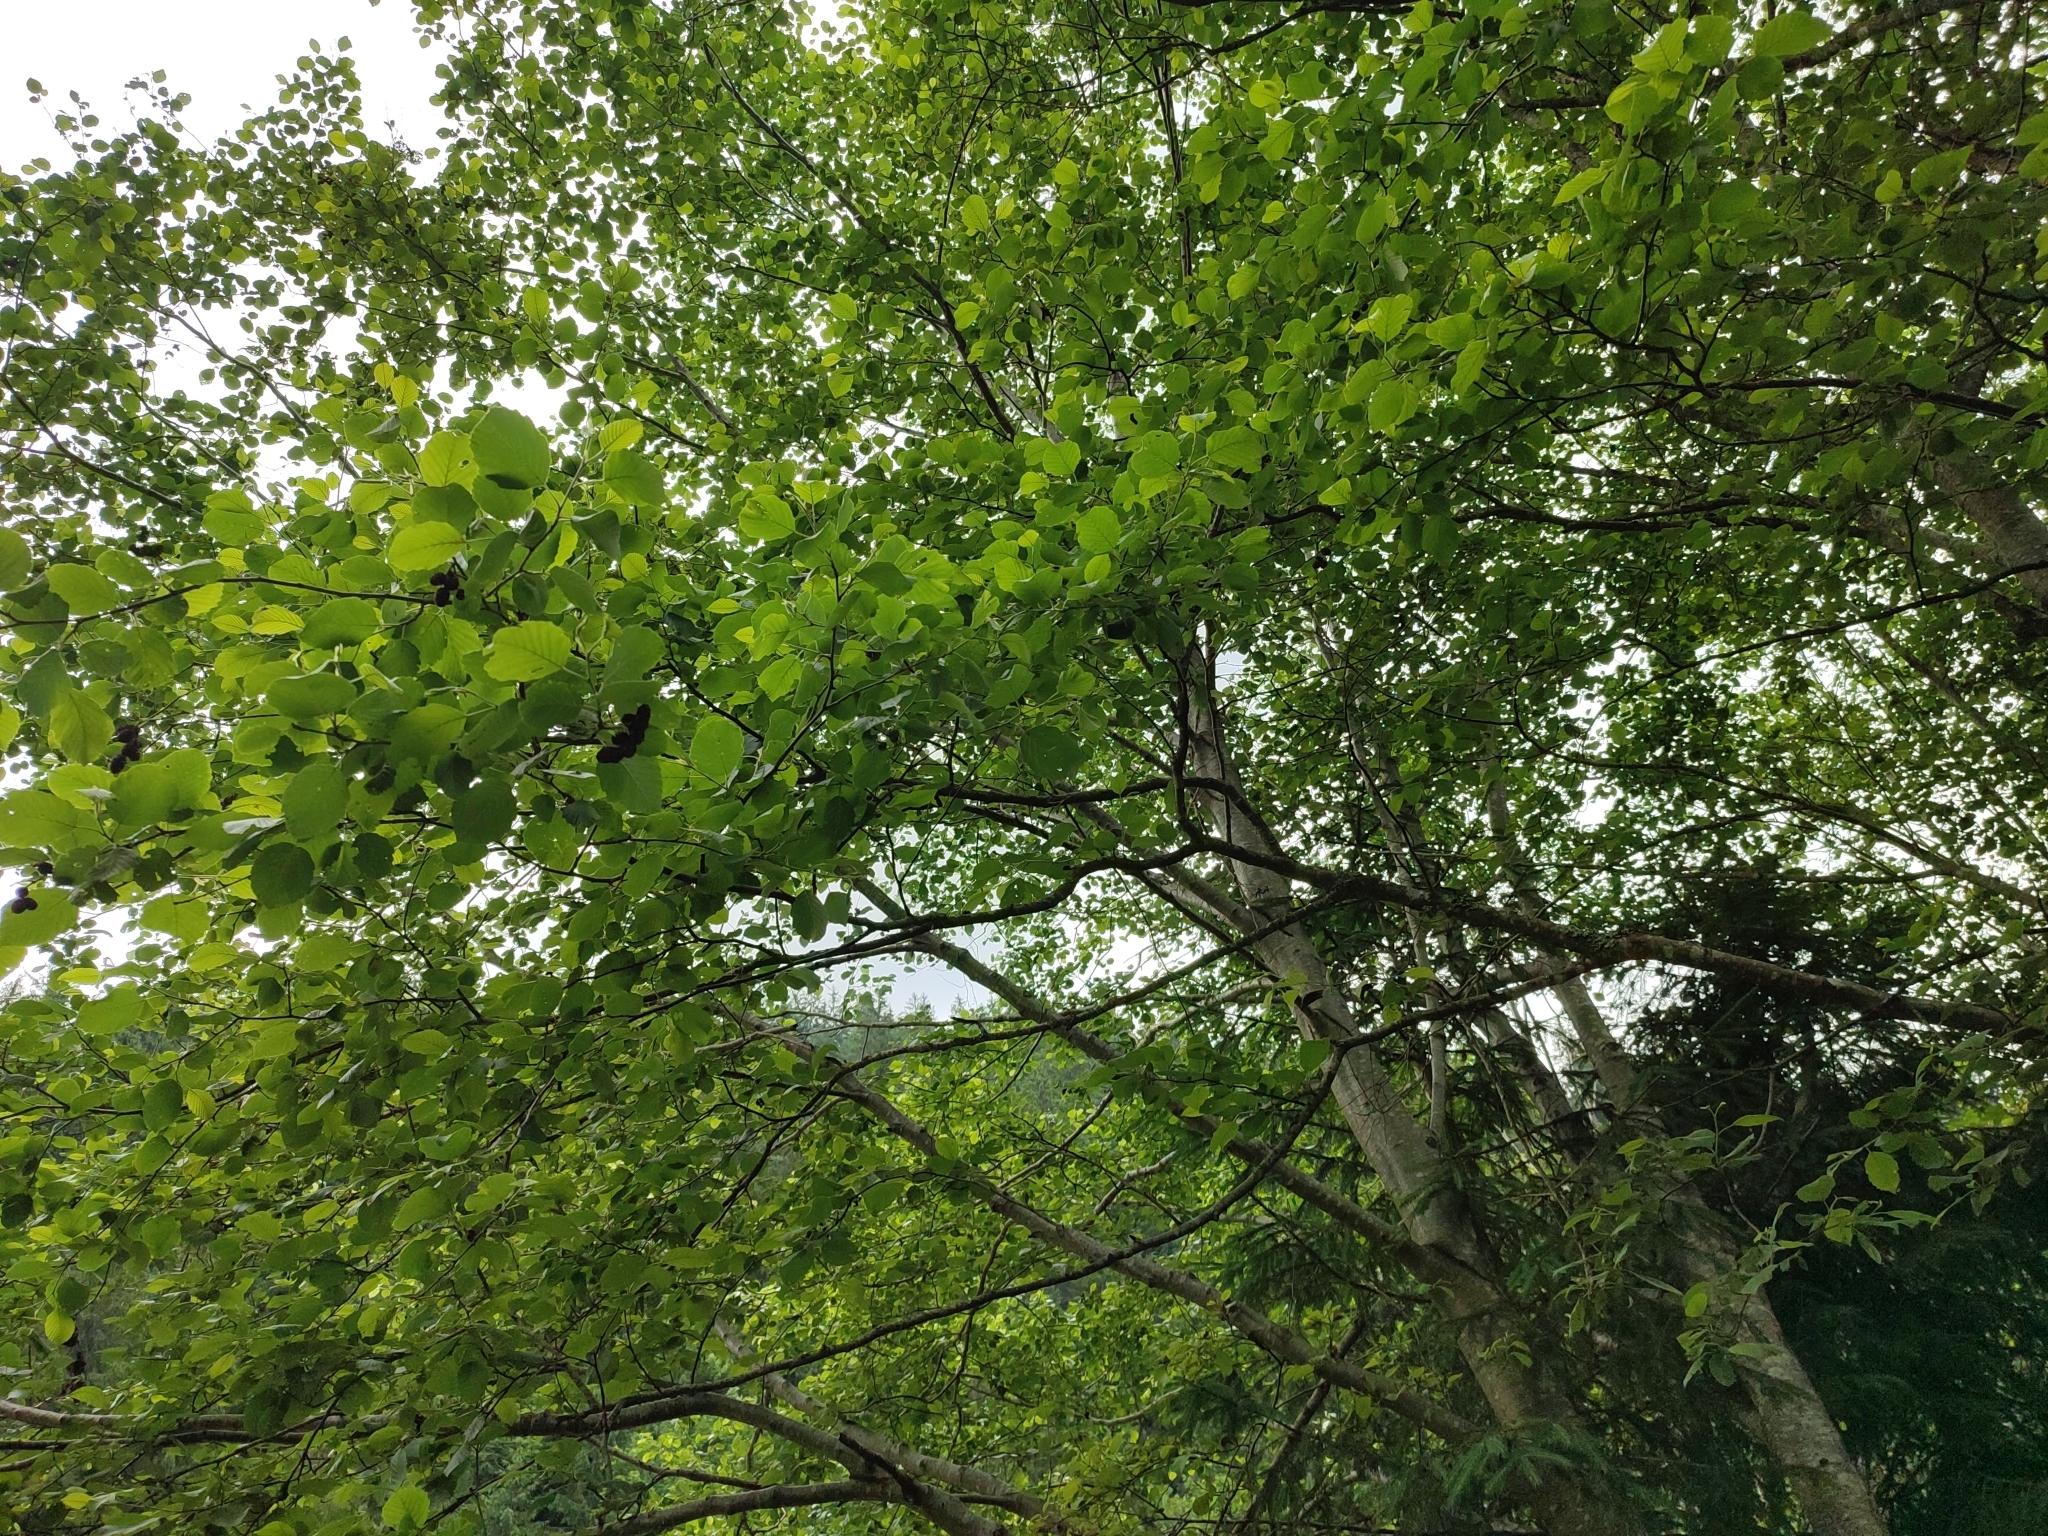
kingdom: Plantae
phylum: Tracheophyta
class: Magnoliopsida
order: Fagales
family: Betulaceae
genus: Alnus
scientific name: Alnus incana
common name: Grey alder
